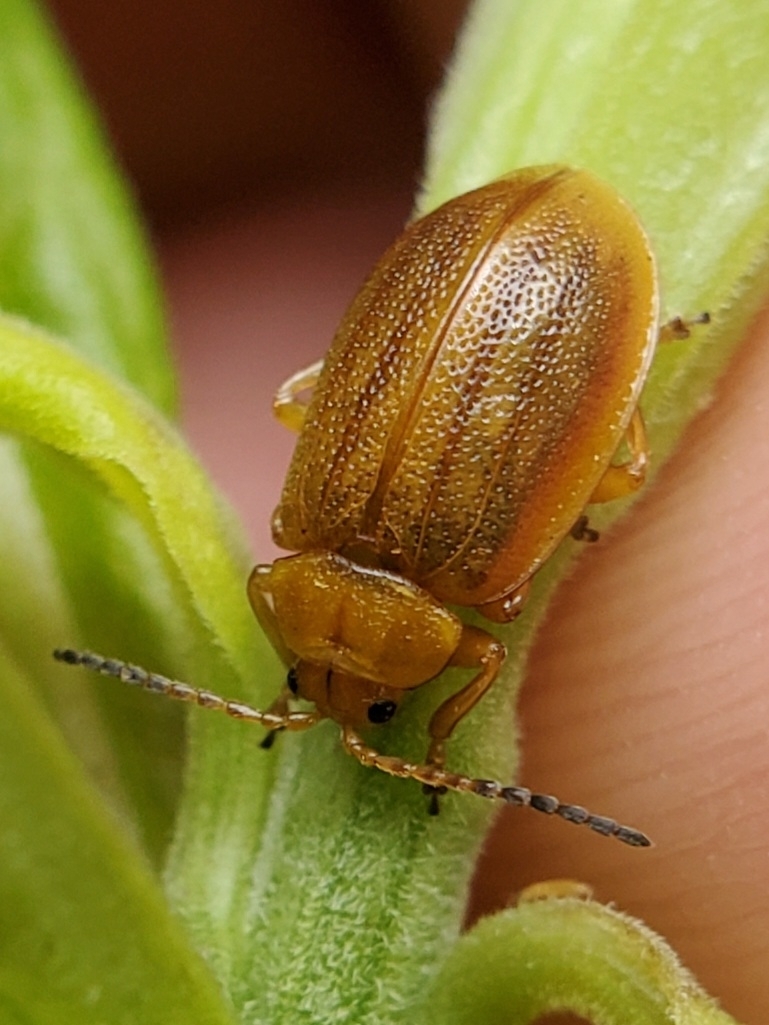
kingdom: Animalia
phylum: Arthropoda
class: Insecta
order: Coleoptera
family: Chrysomelidae
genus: Ophraella
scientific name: Ophraella cribrata
